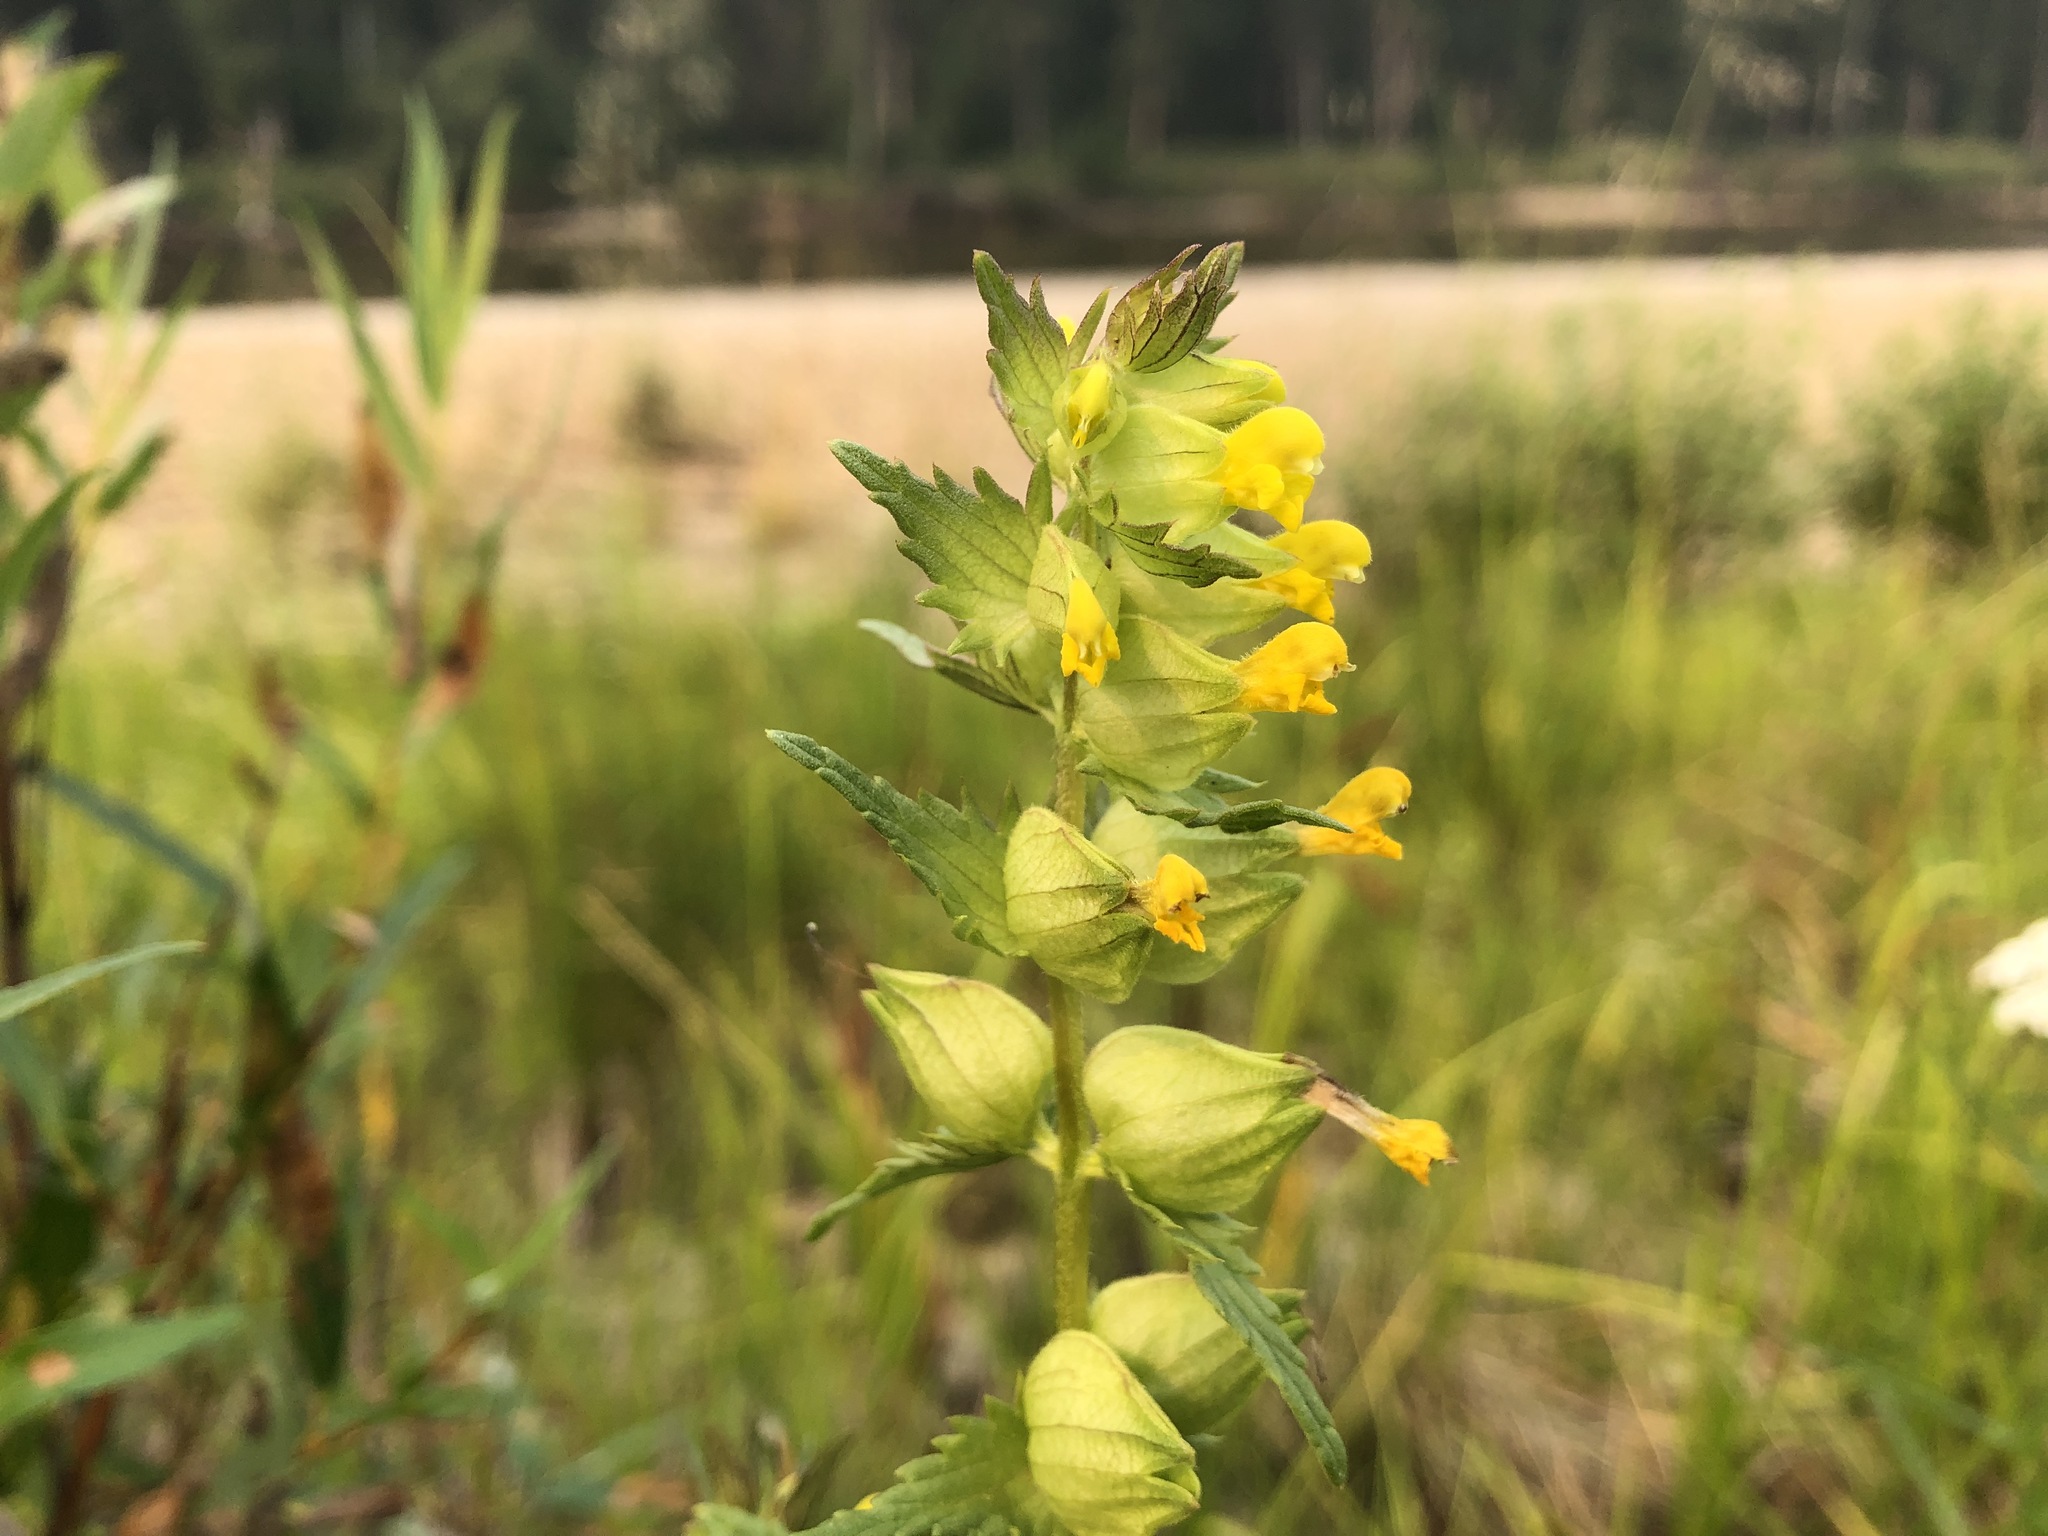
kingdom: Plantae
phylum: Tracheophyta
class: Magnoliopsida
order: Lamiales
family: Orobanchaceae
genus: Rhinanthus
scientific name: Rhinanthus minor
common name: Yellow-rattle
